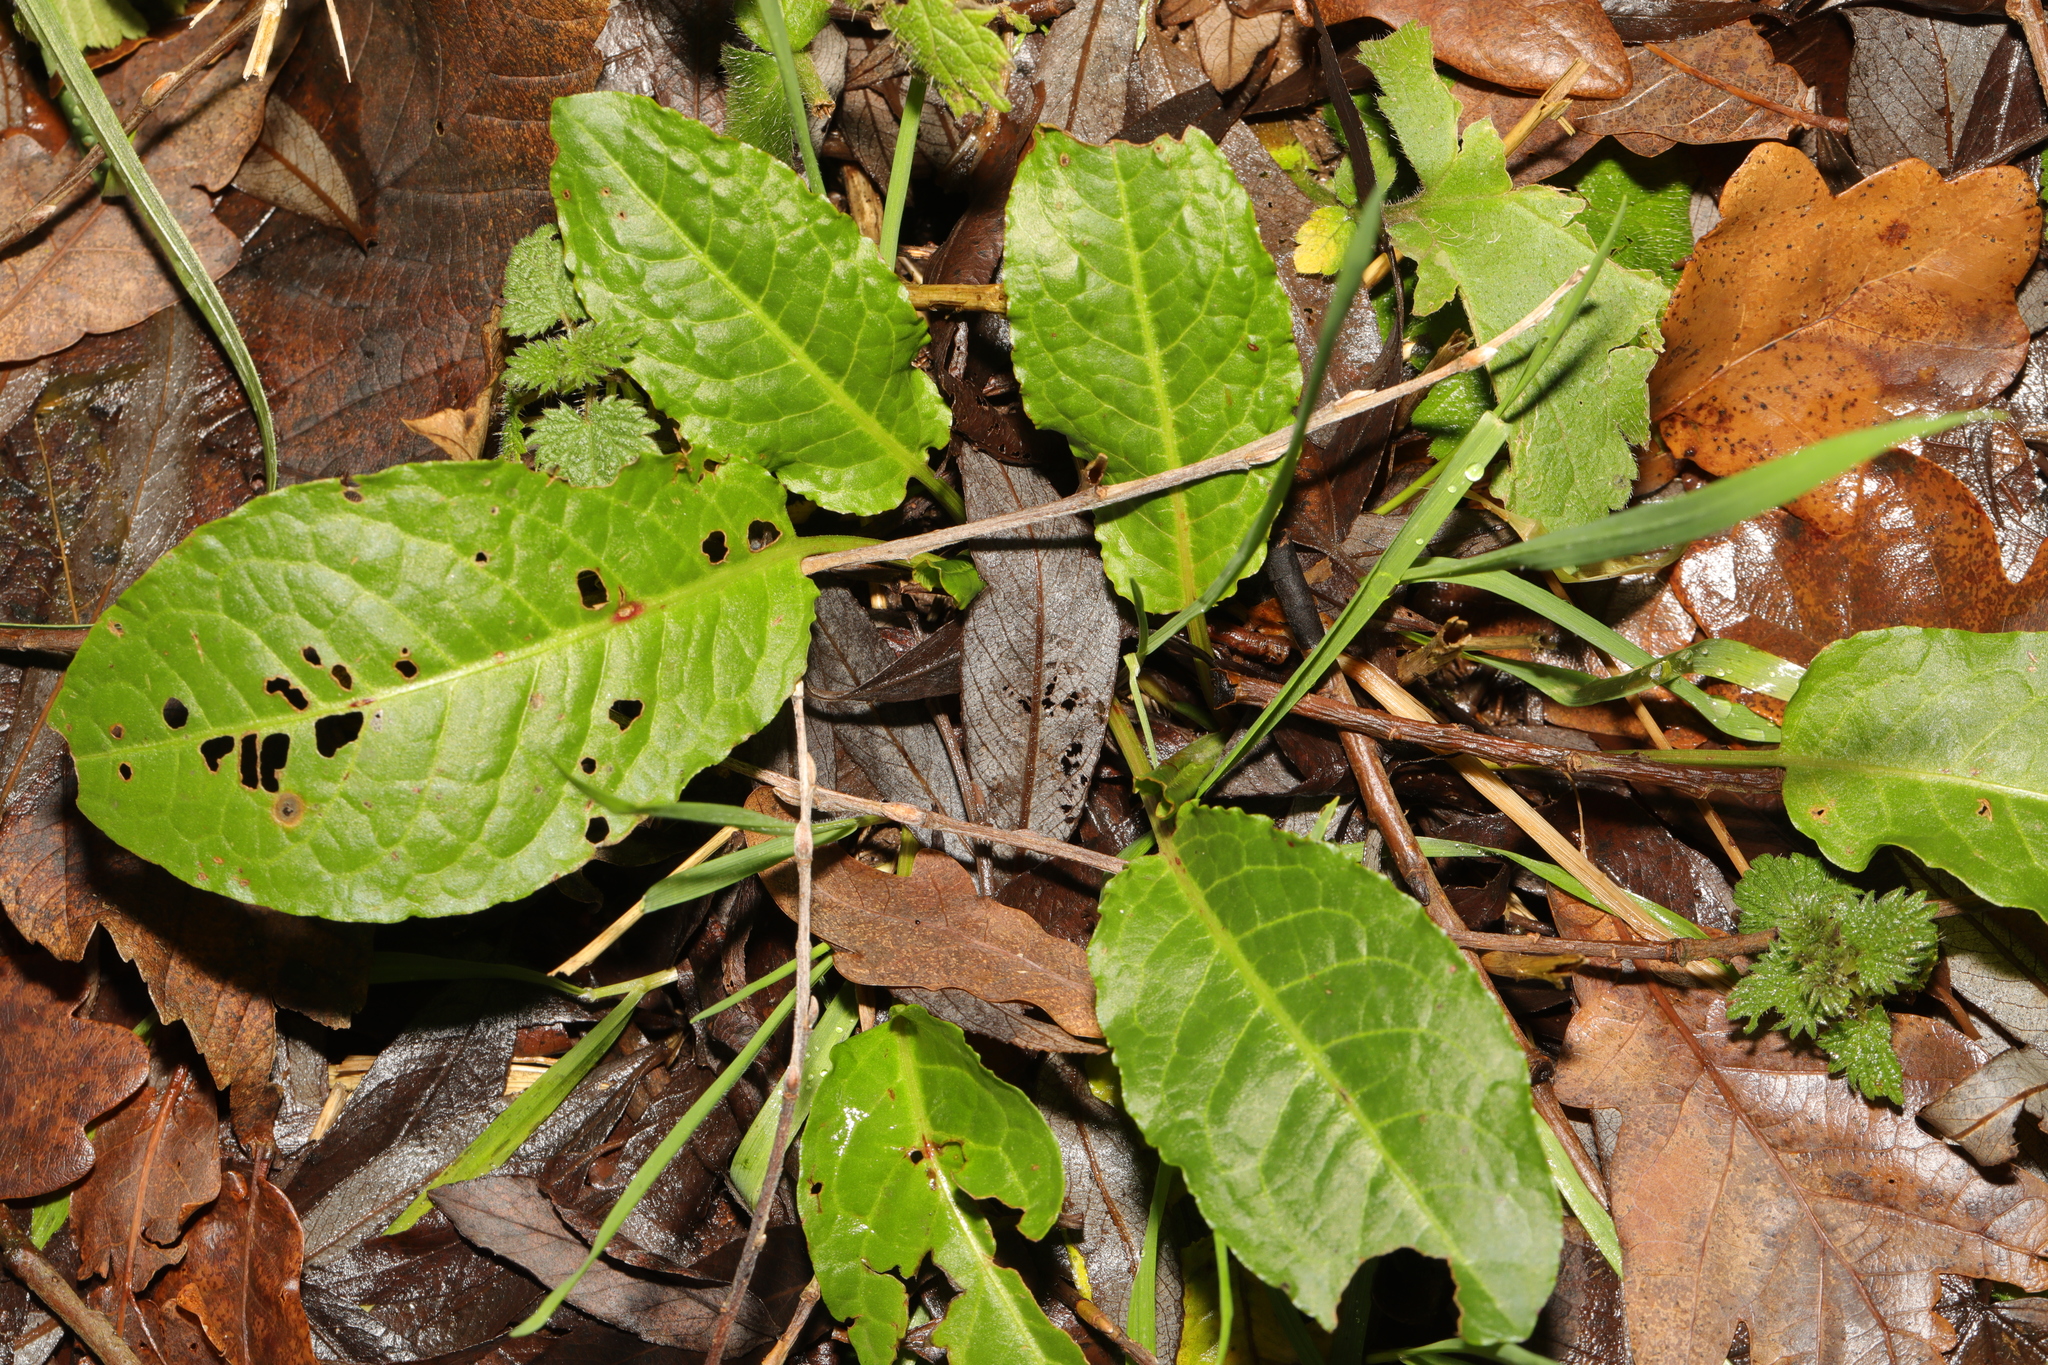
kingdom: Plantae
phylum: Tracheophyta
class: Magnoliopsida
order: Caryophyllales
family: Polygonaceae
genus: Rumex
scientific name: Rumex obtusifolius
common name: Bitter dock
